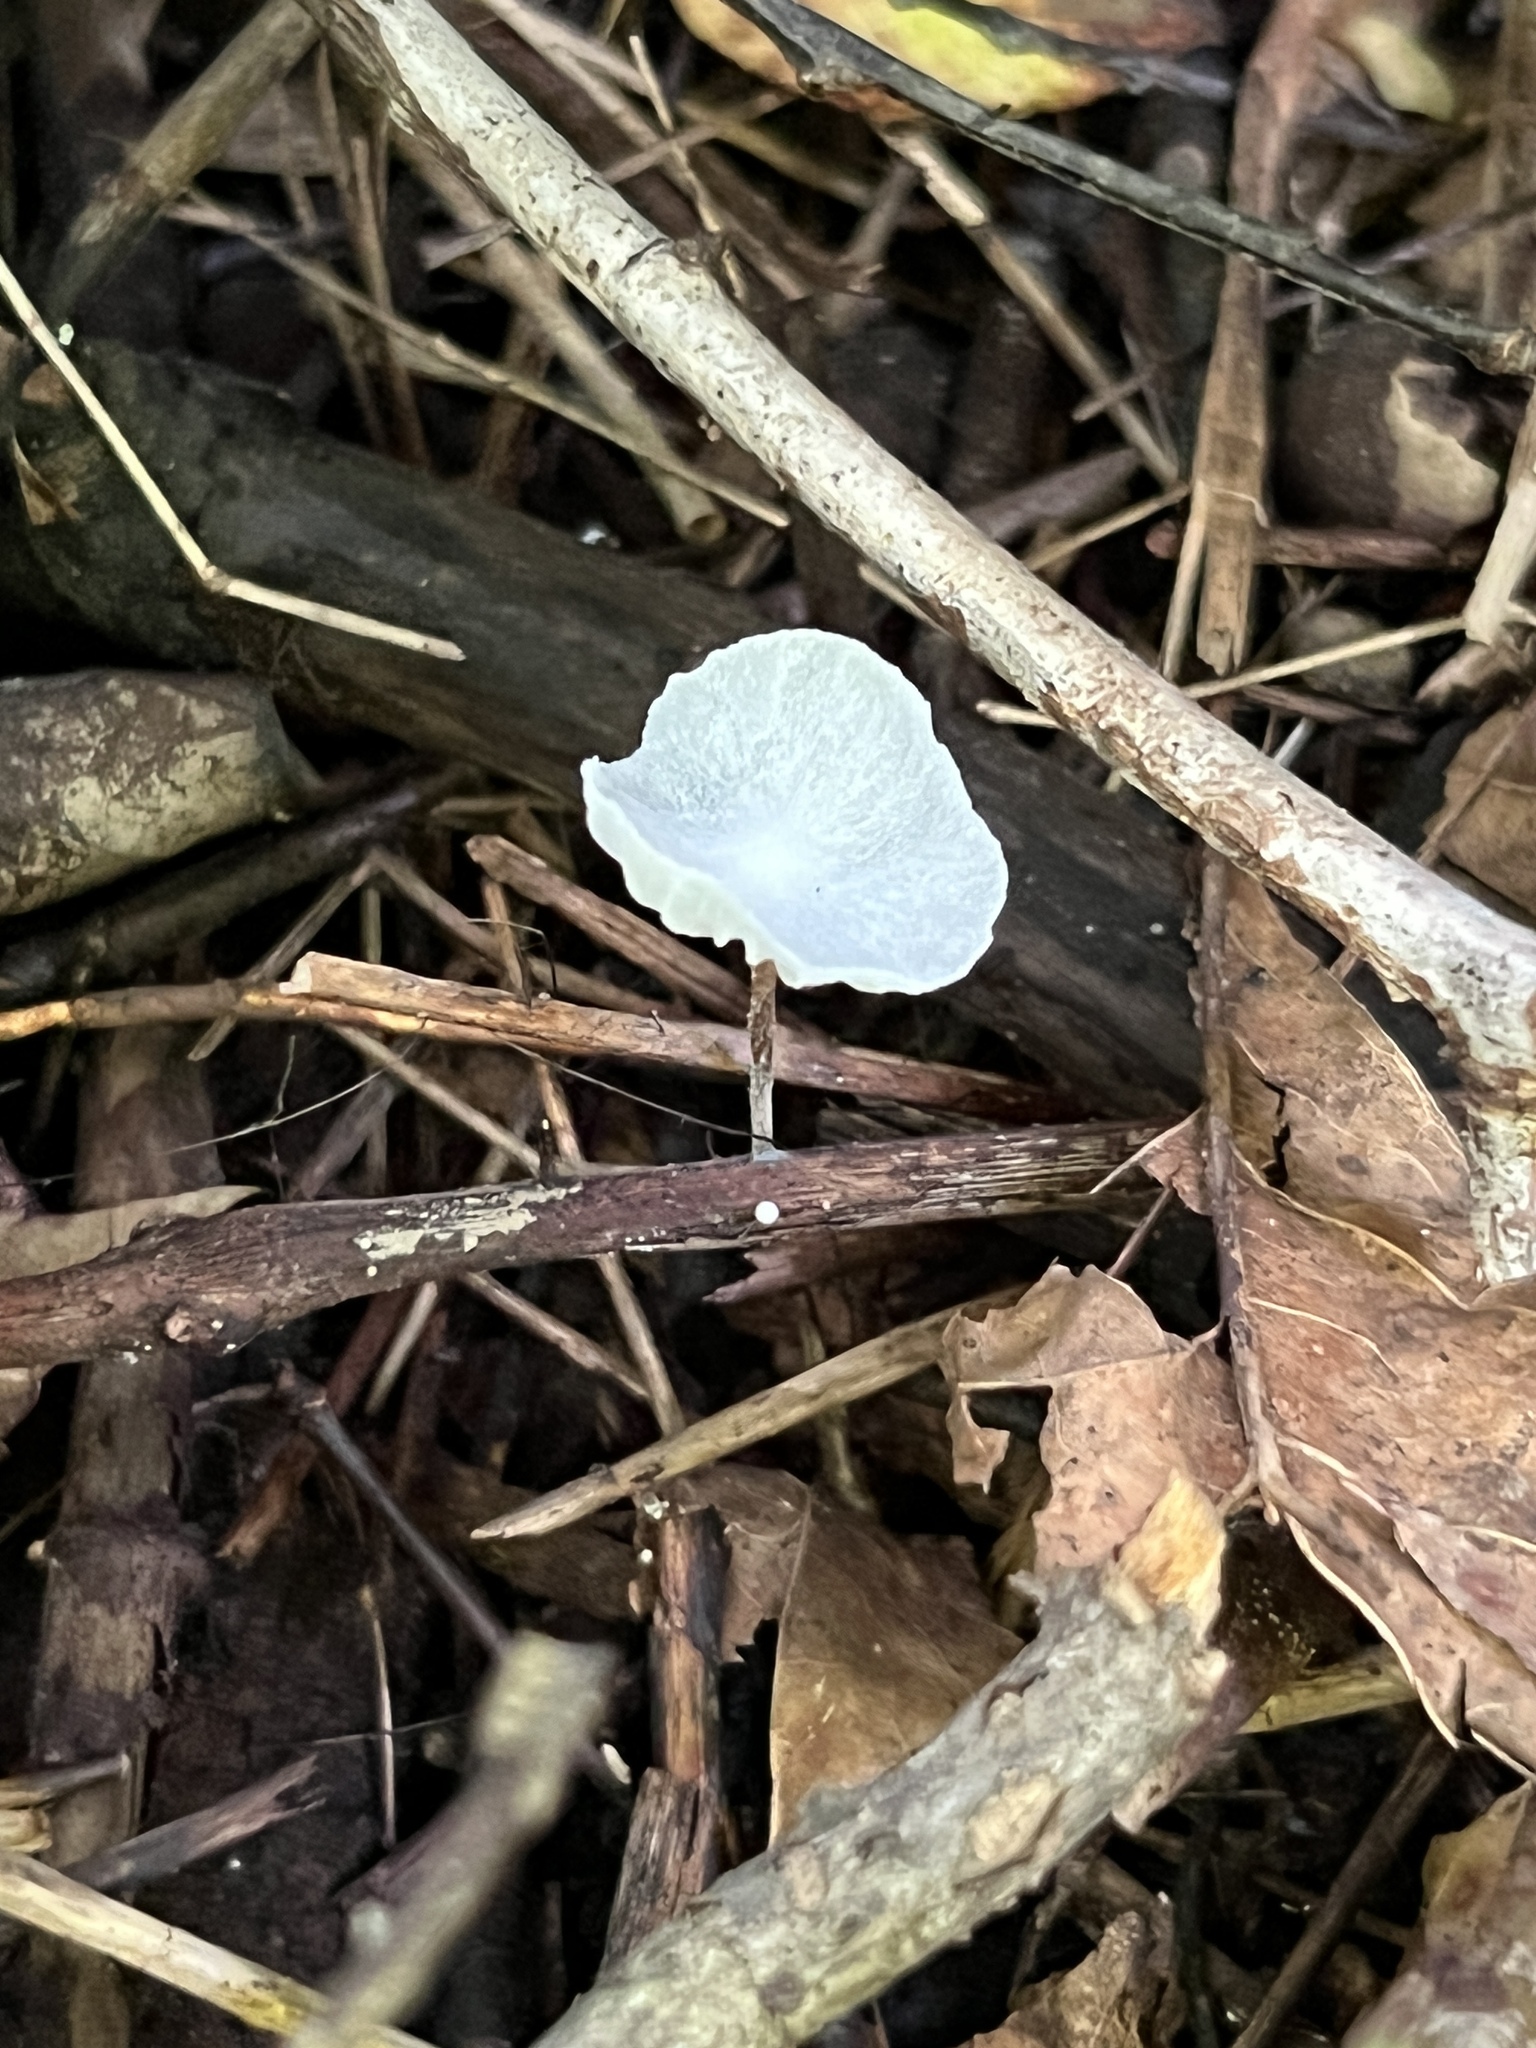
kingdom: Fungi
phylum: Basidiomycota
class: Agaricomycetes
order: Agaricales
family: Marasmiaceae
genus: Tetrapyrgos
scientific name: Tetrapyrgos nigripes
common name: Black-stalked marasmius
